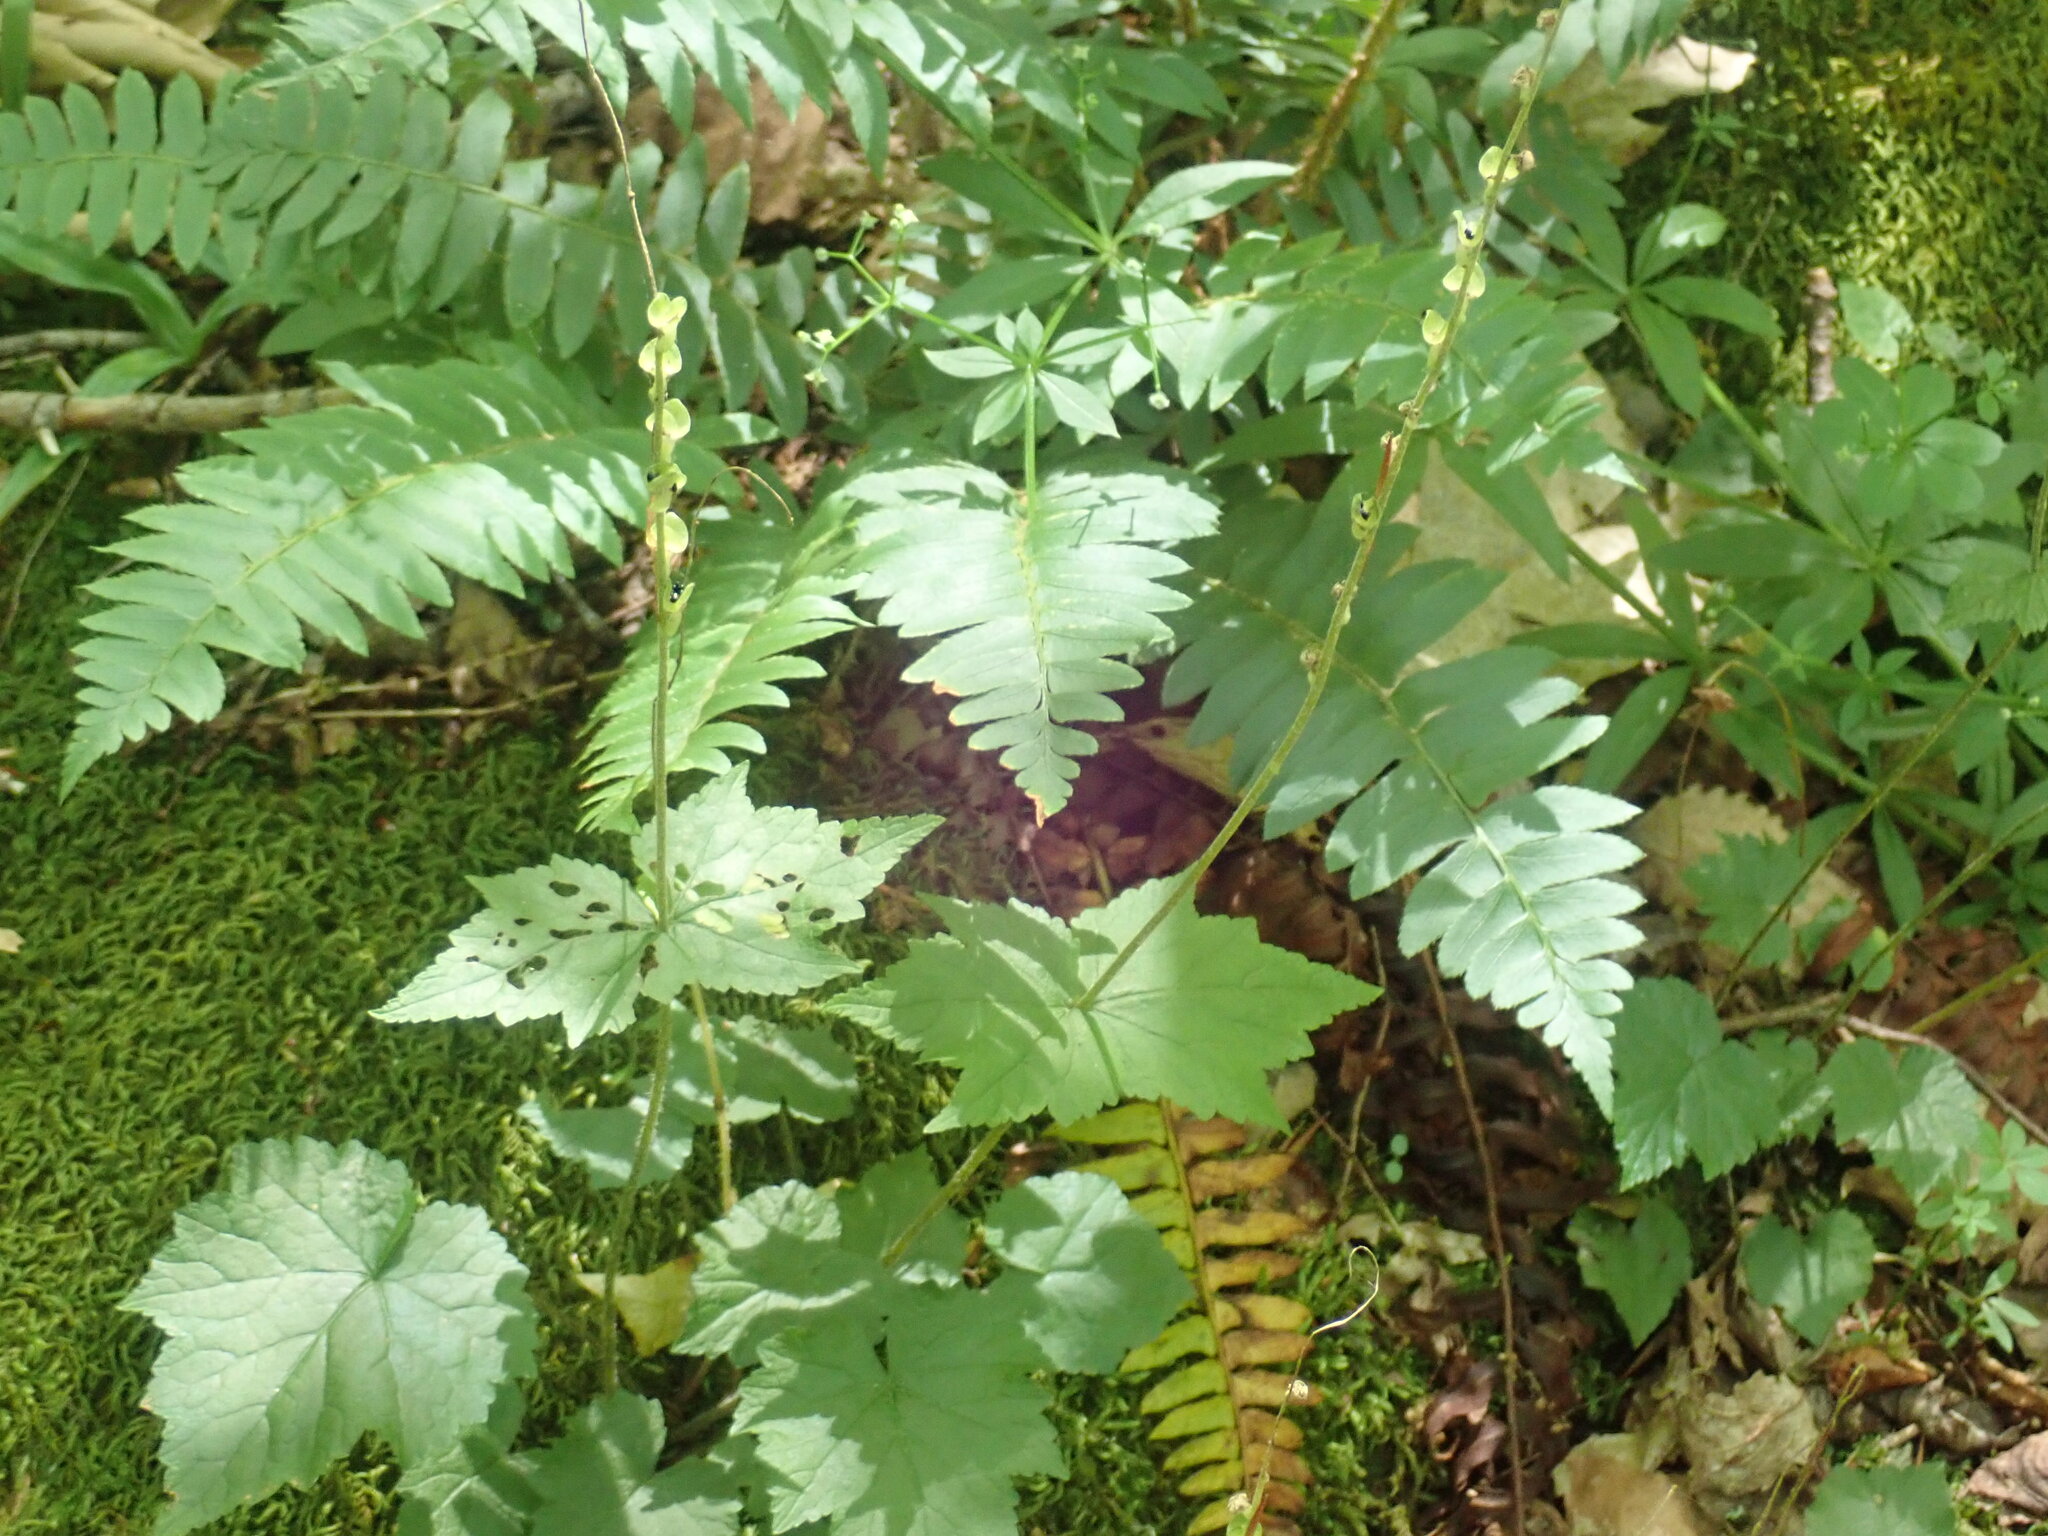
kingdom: Plantae
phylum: Tracheophyta
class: Magnoliopsida
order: Saxifragales
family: Saxifragaceae
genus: Mitella
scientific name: Mitella diphylla
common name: Coolwort
